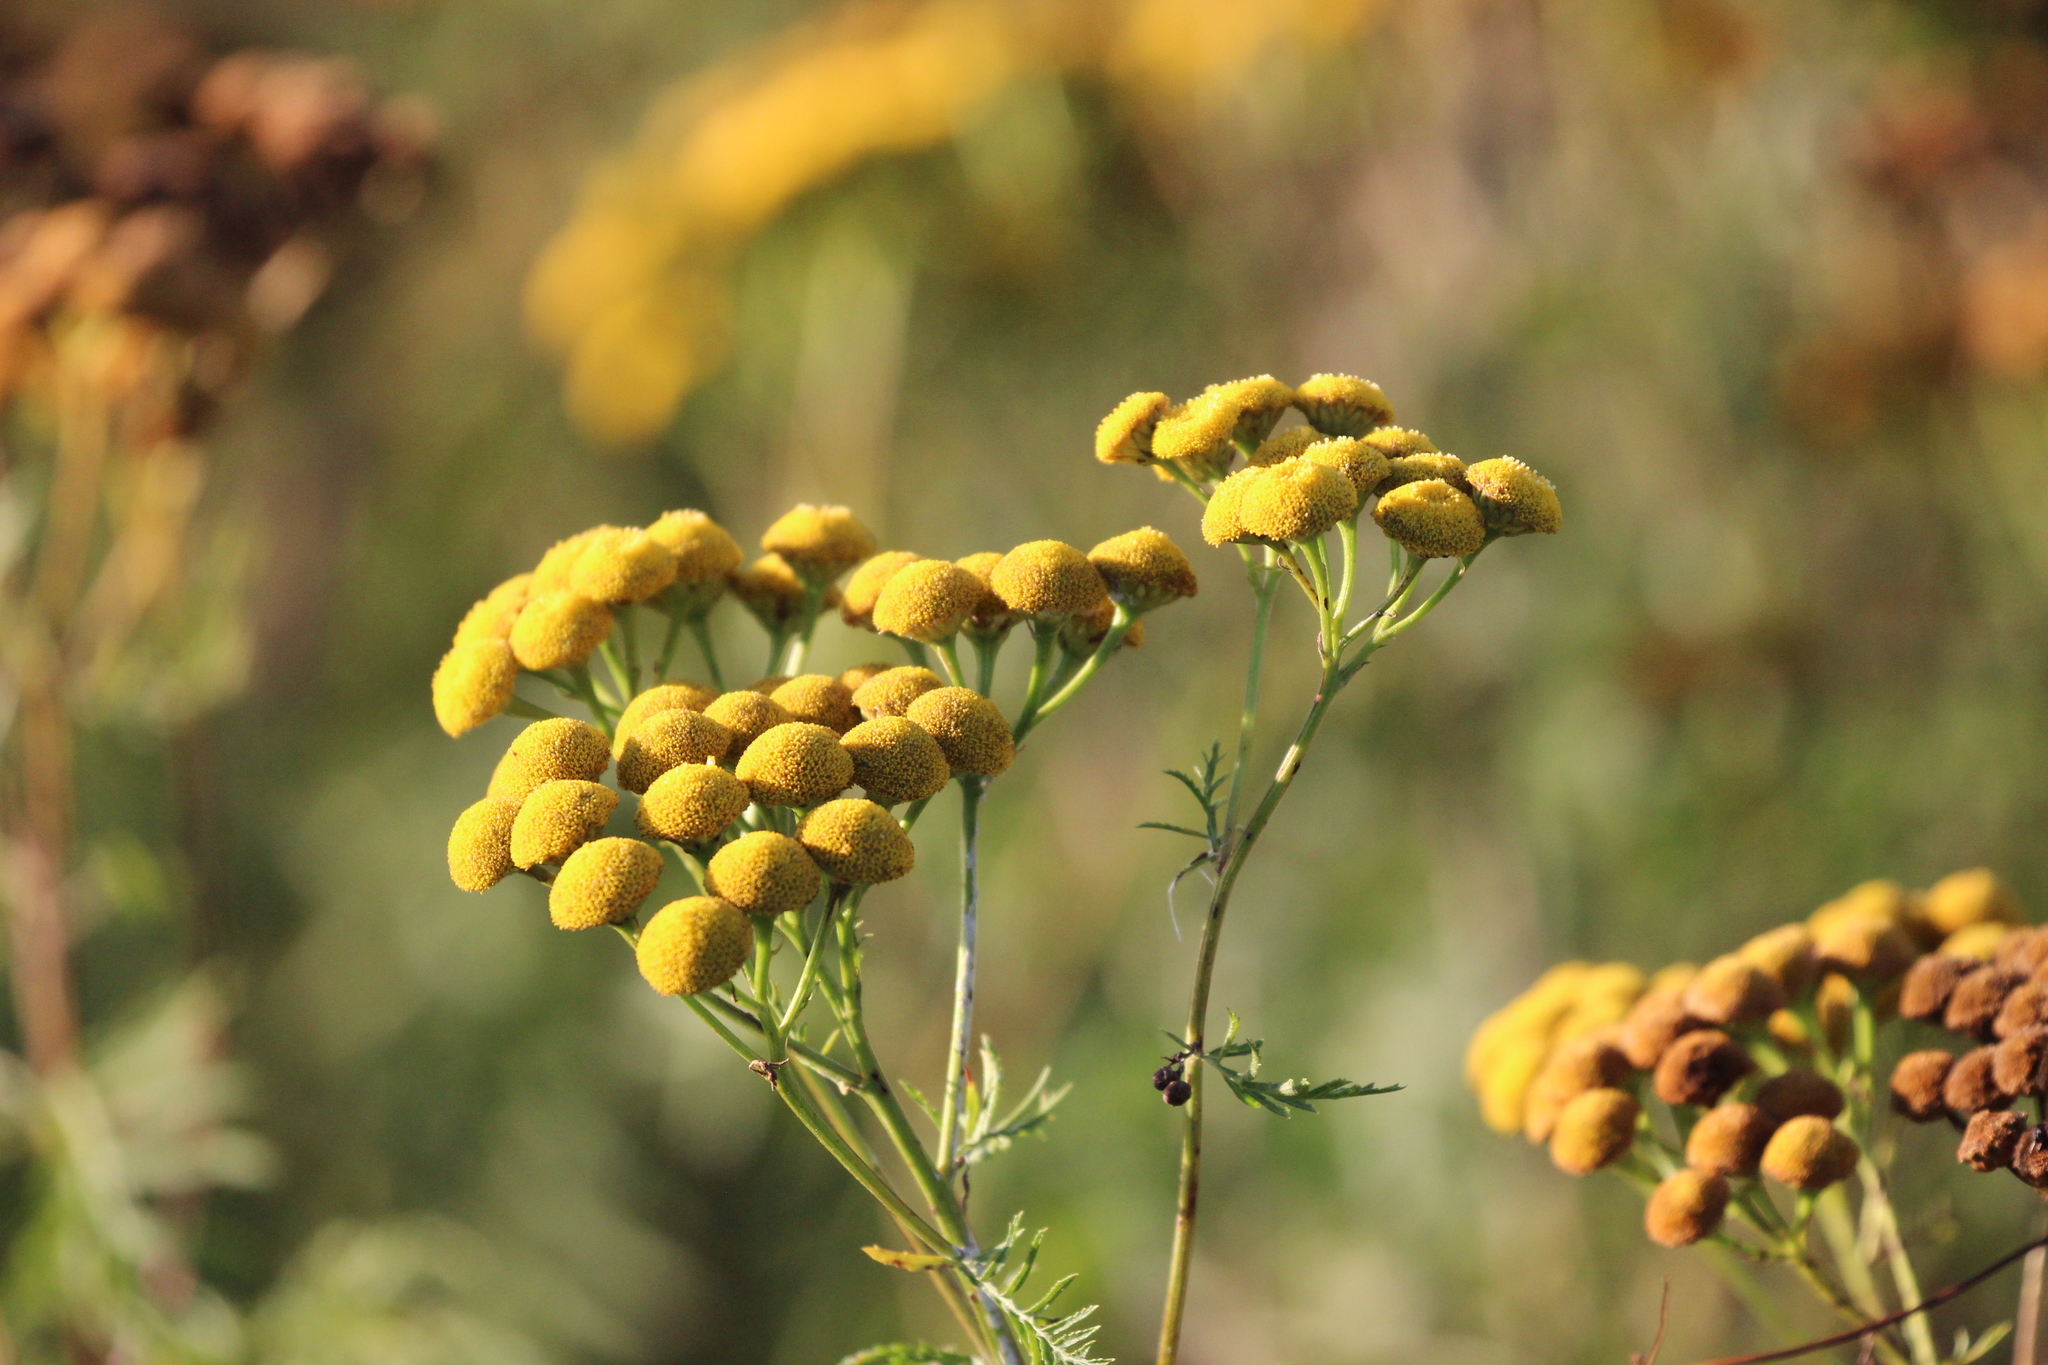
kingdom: Plantae
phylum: Tracheophyta
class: Magnoliopsida
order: Asterales
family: Asteraceae
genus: Tanacetum
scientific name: Tanacetum vulgare
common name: Common tansy
